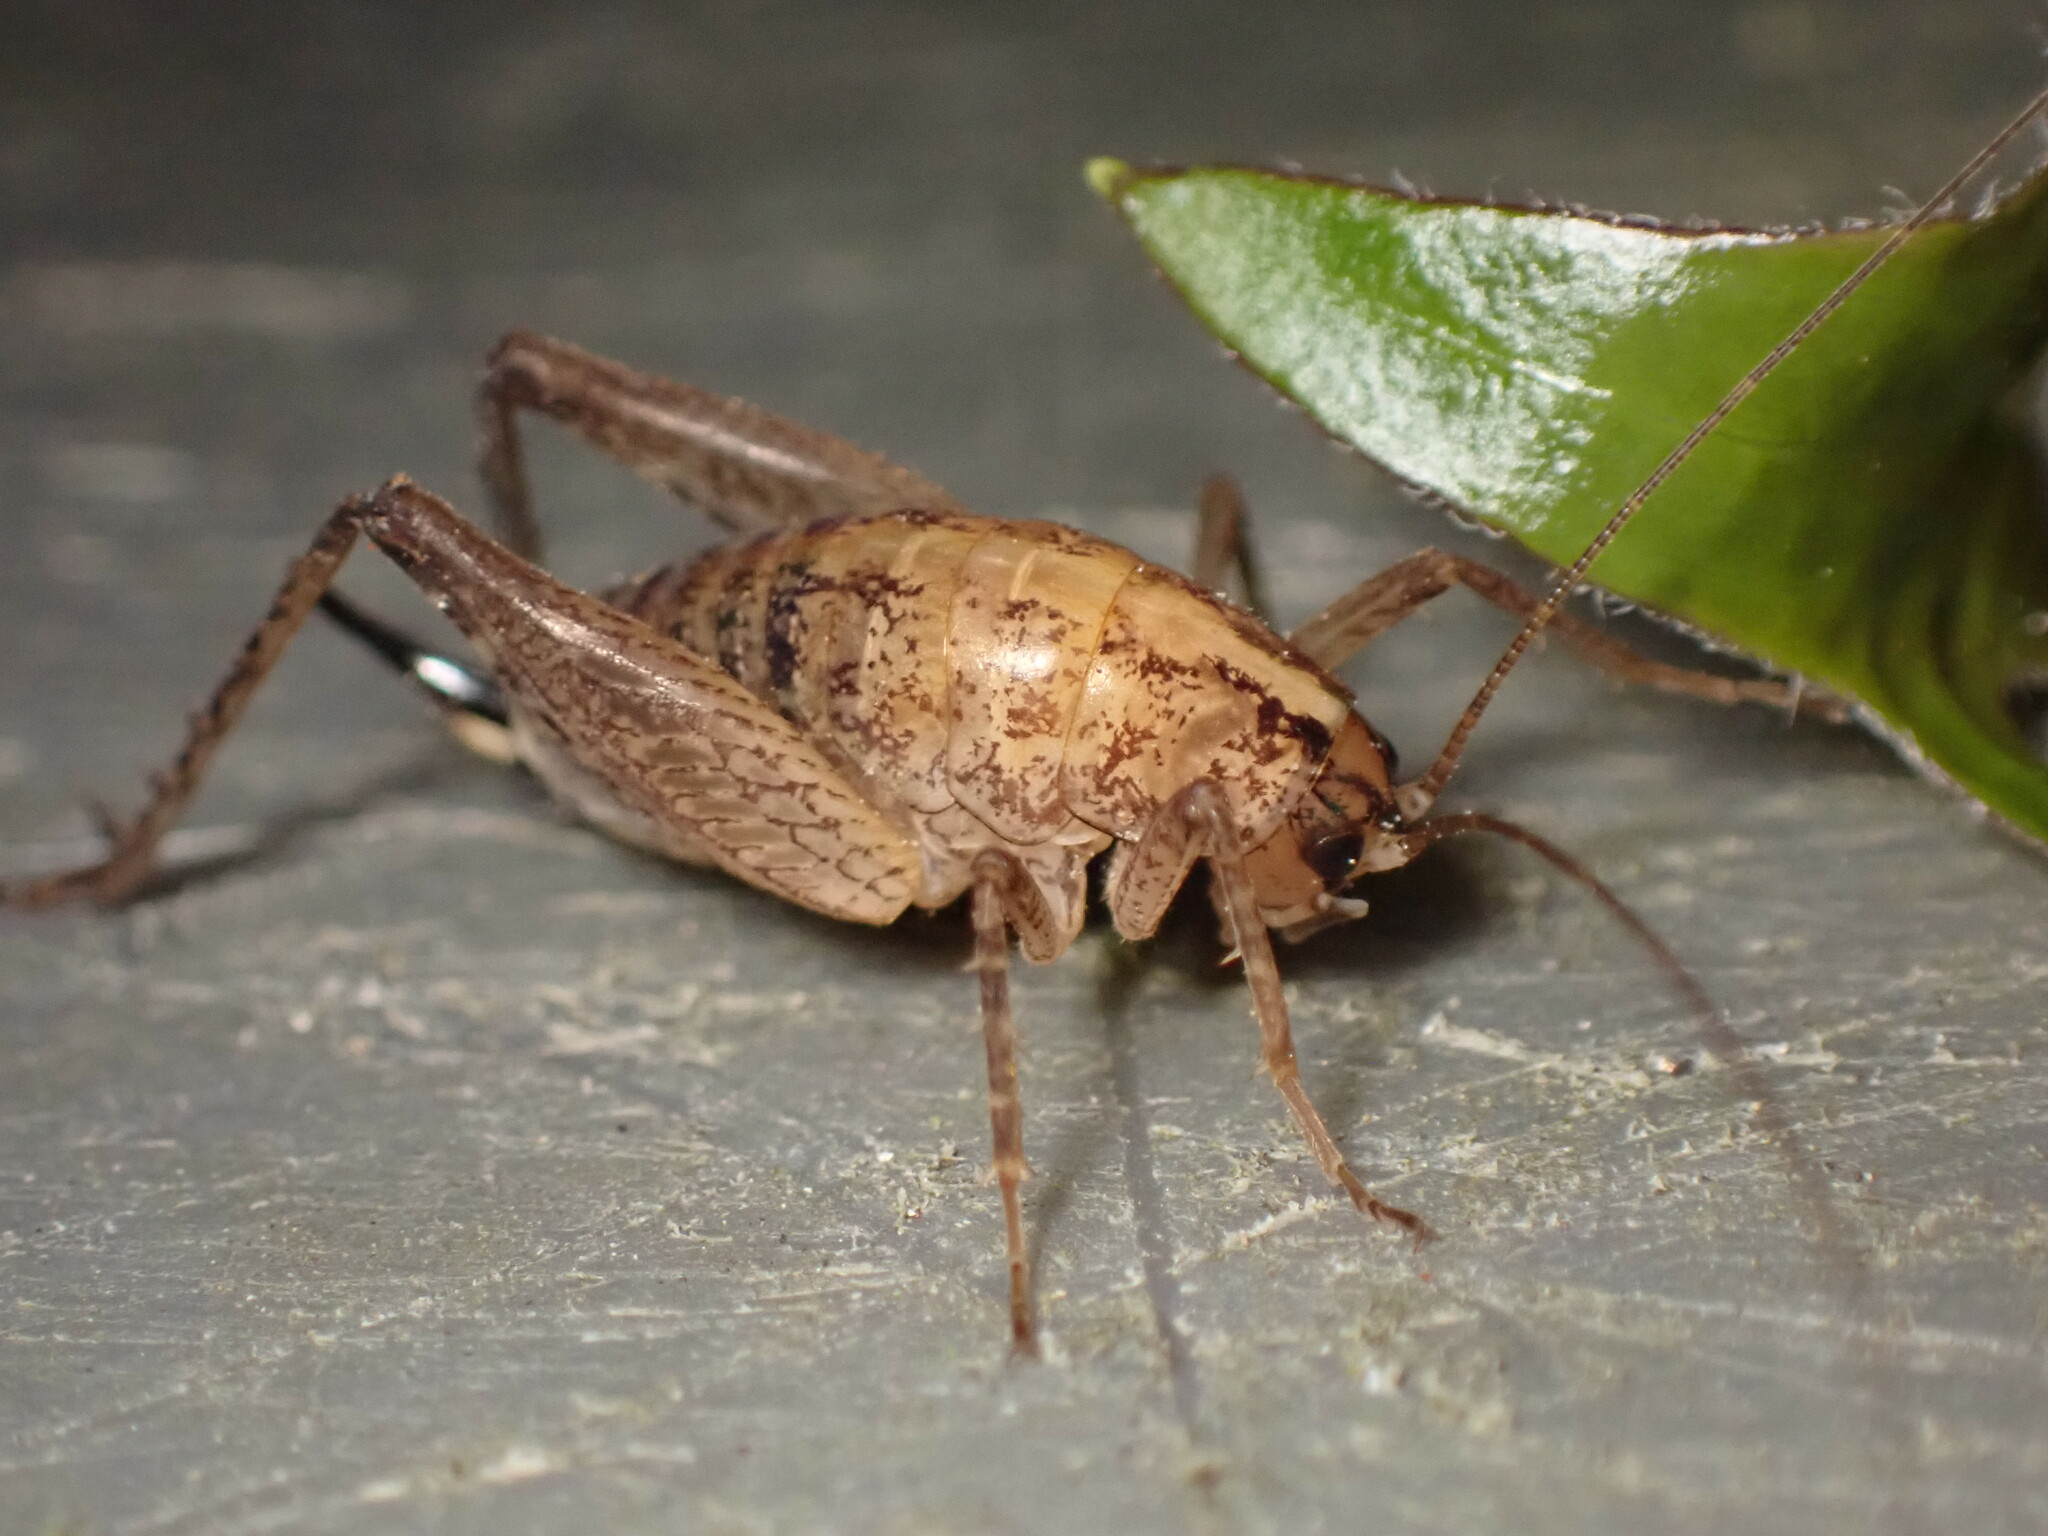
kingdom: Animalia
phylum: Arthropoda
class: Insecta
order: Orthoptera
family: Rhaphidophoridae
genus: Pristoceuthophilus
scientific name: Pristoceuthophilus
